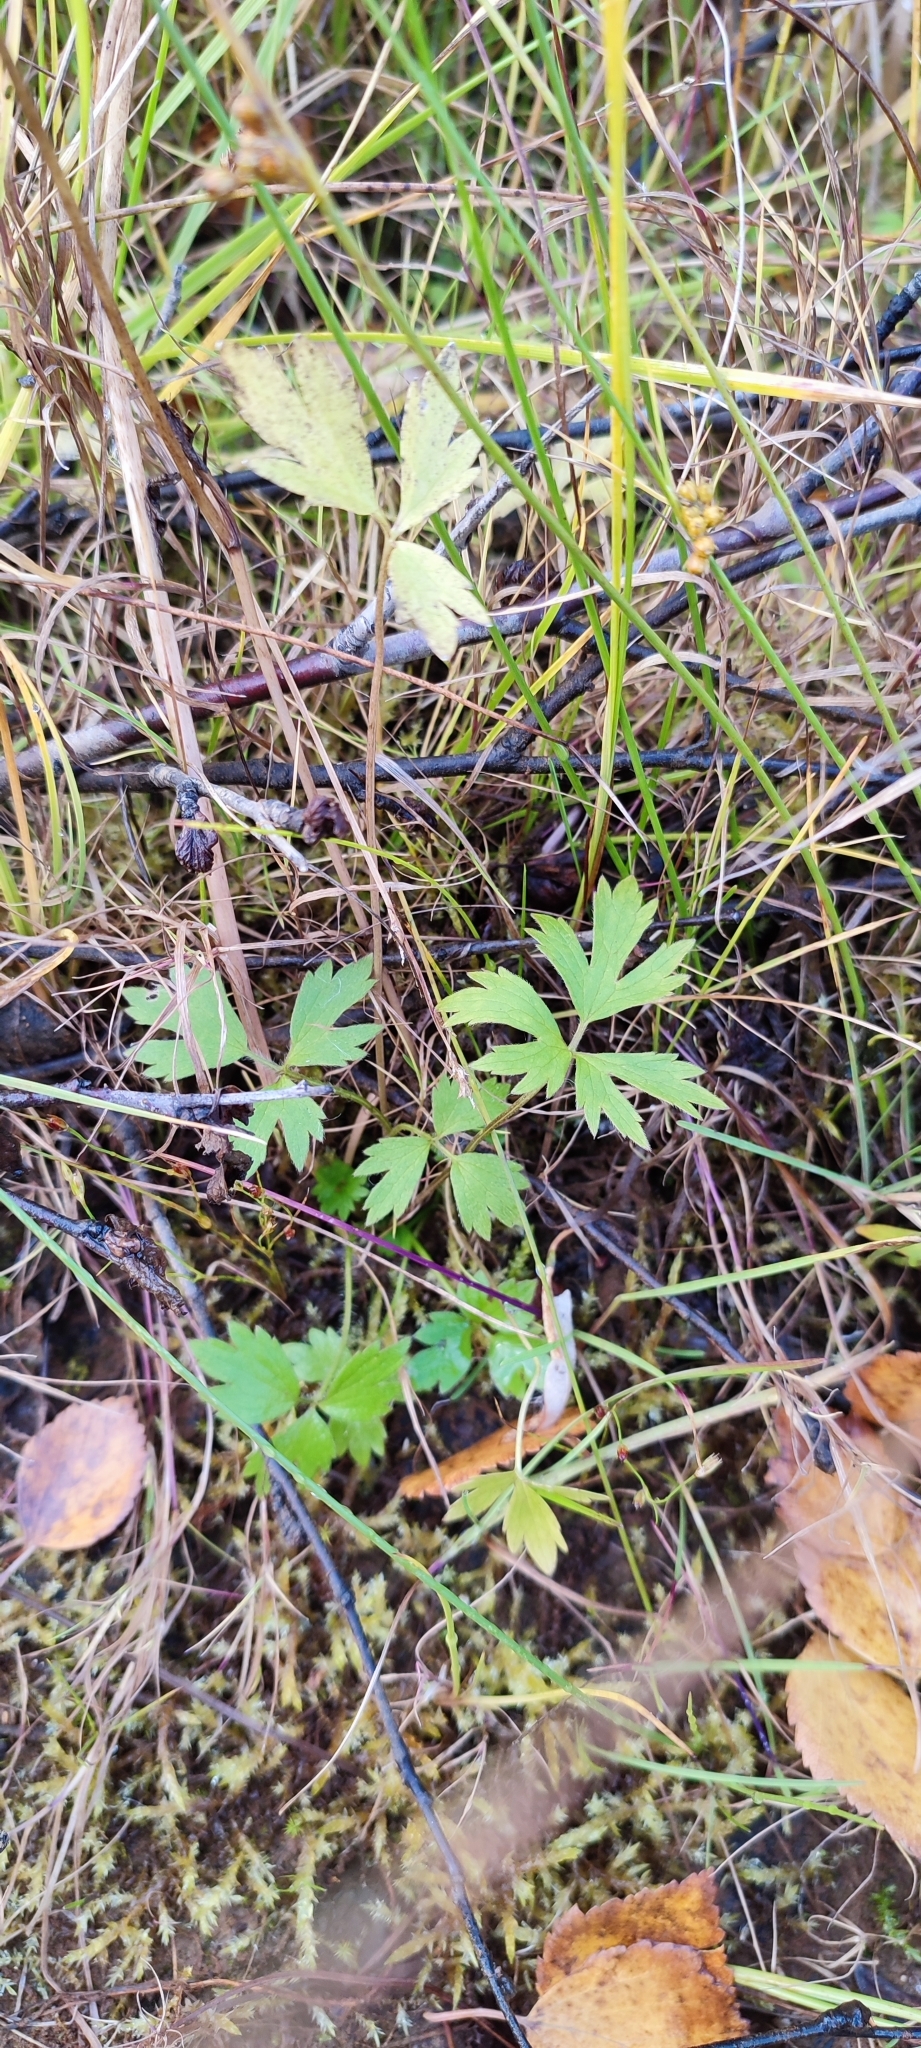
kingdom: Plantae
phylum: Tracheophyta
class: Magnoliopsida
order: Ranunculales
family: Ranunculaceae
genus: Ranunculus
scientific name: Ranunculus repens
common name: Creeping buttercup
